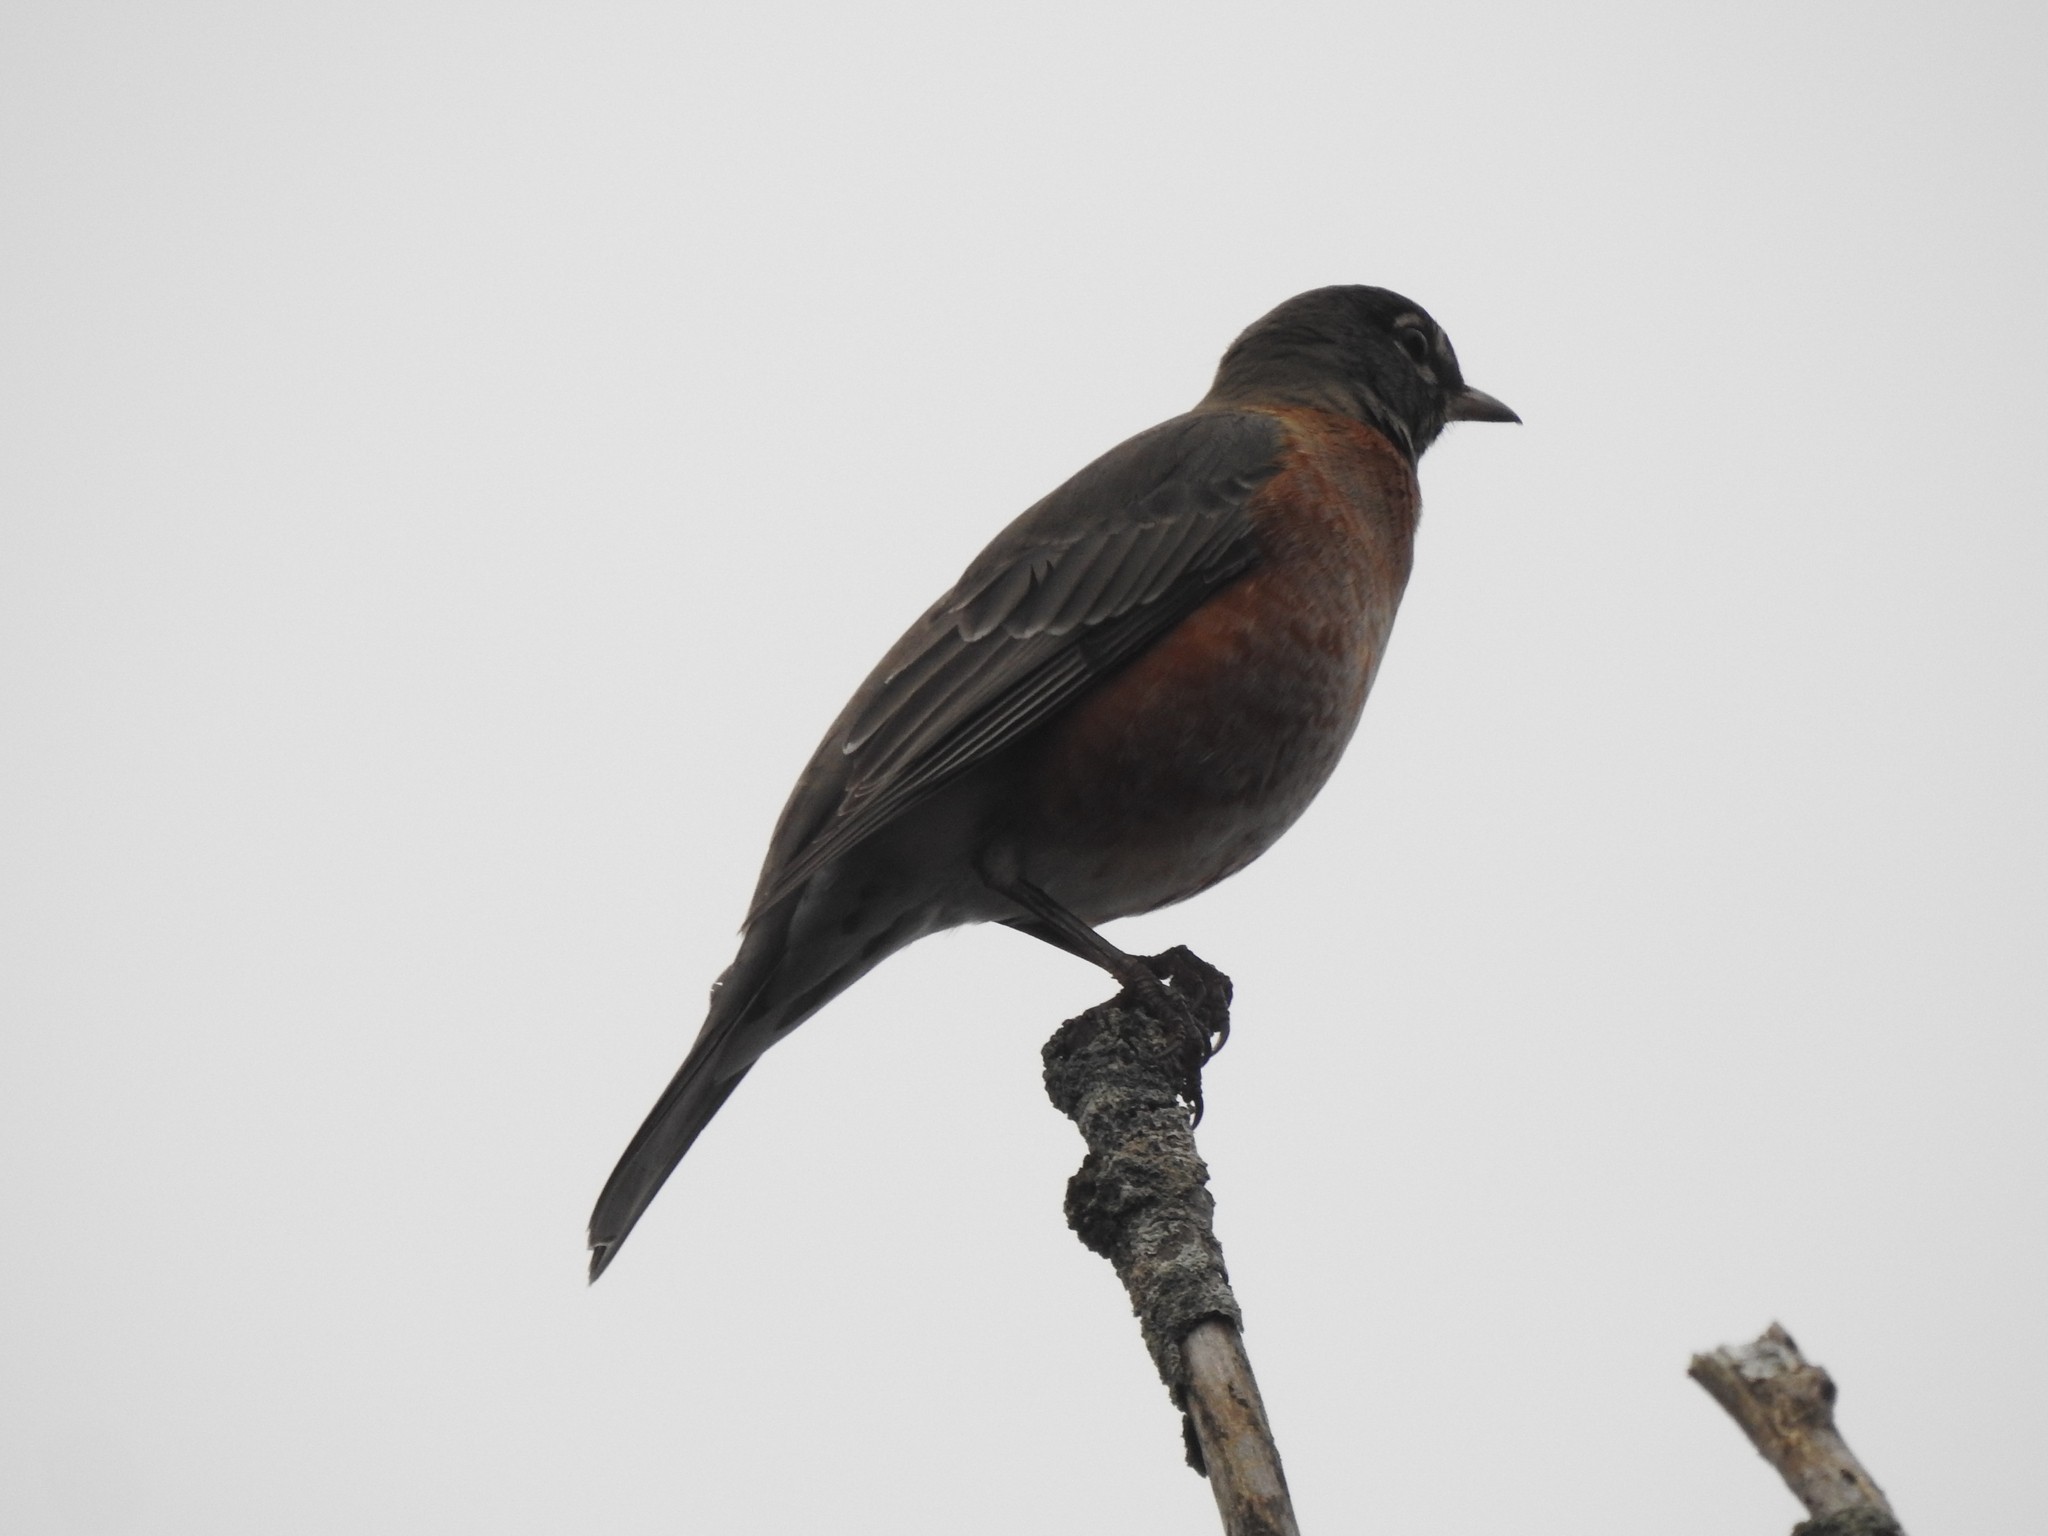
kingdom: Animalia
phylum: Chordata
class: Aves
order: Passeriformes
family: Turdidae
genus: Turdus
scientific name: Turdus migratorius
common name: American robin
